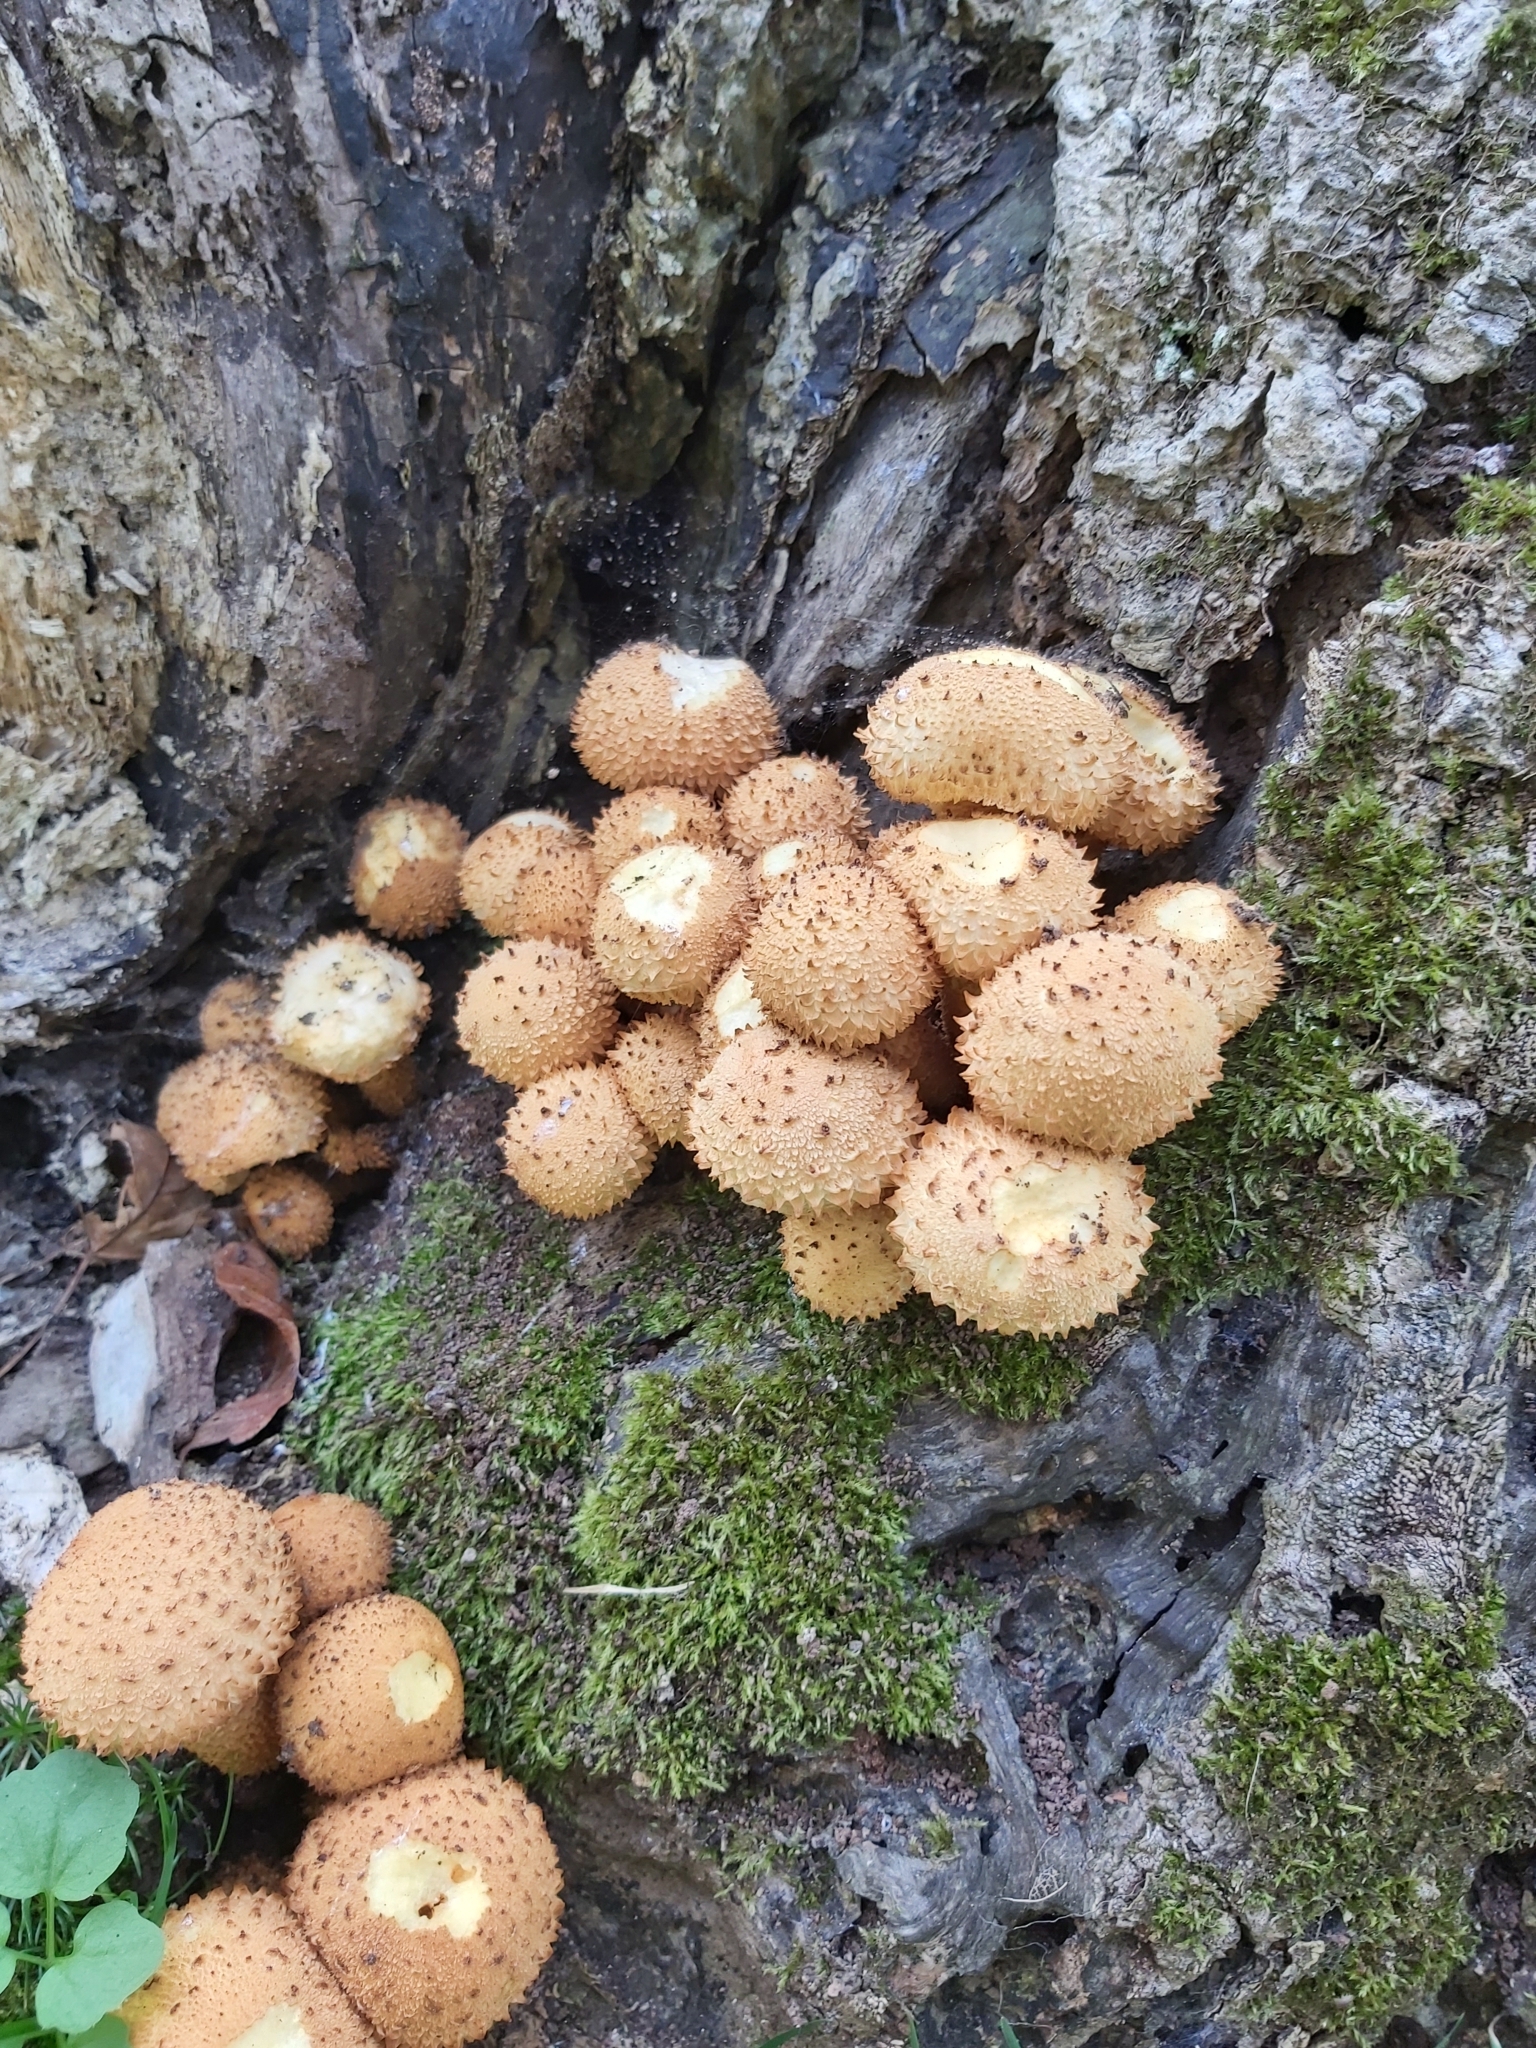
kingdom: Fungi
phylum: Basidiomycota
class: Agaricomycetes
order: Agaricales
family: Strophariaceae
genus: Pholiota
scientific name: Pholiota squarrosa
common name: Shaggy pholiota
